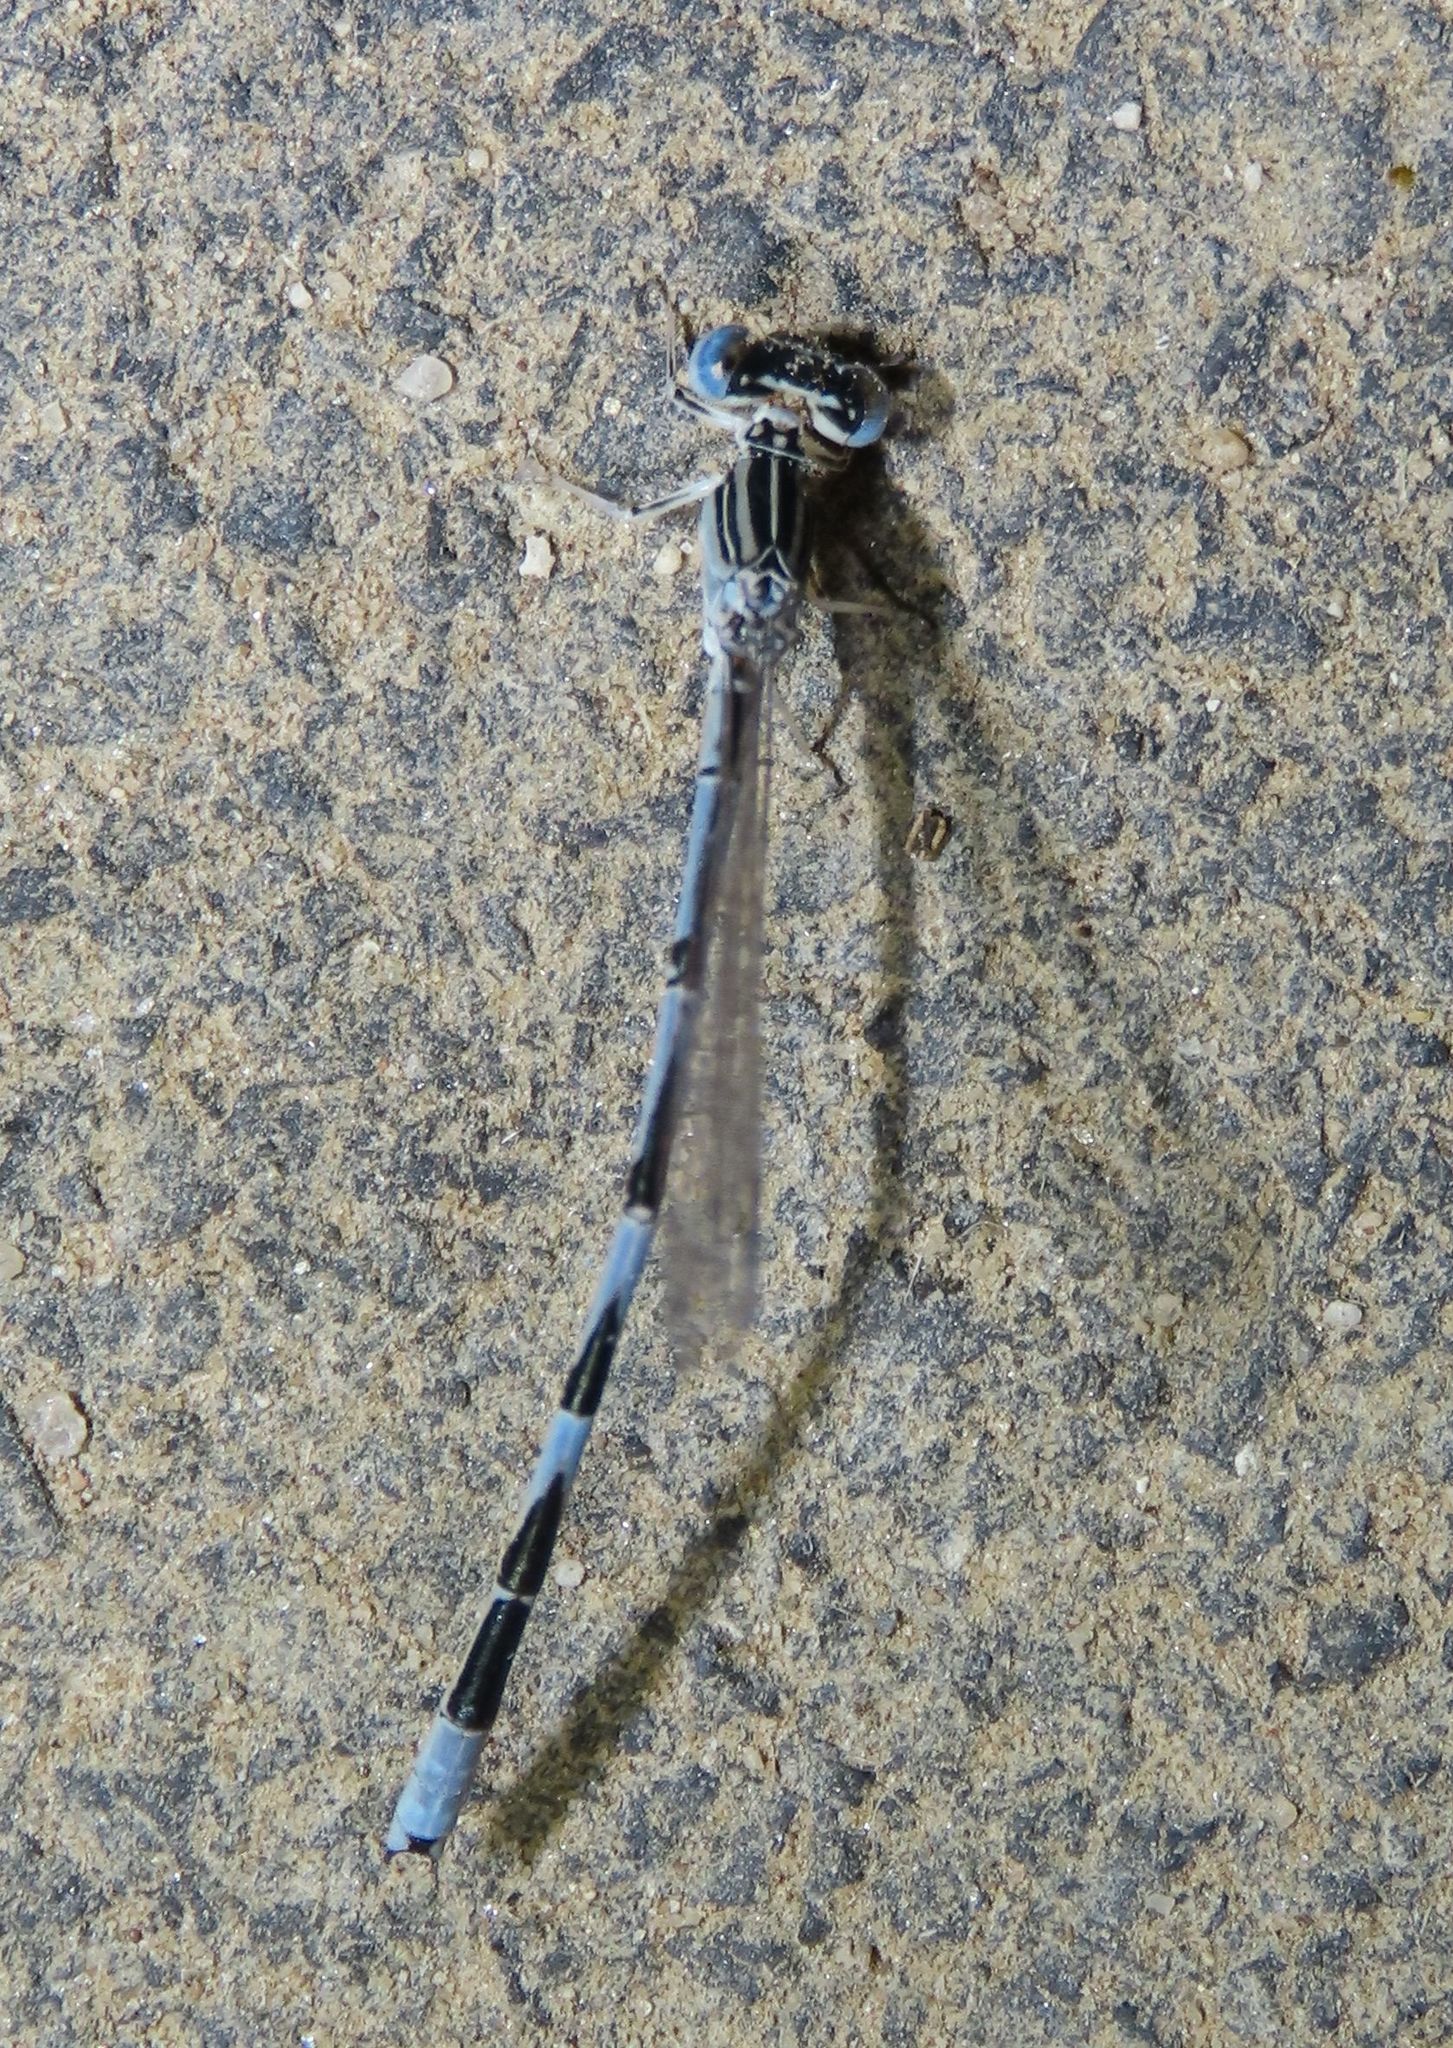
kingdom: Animalia
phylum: Arthropoda
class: Insecta
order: Odonata
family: Coenagrionidae
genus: Enallagma
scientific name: Enallagma basidens
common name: Double-striped bluet
